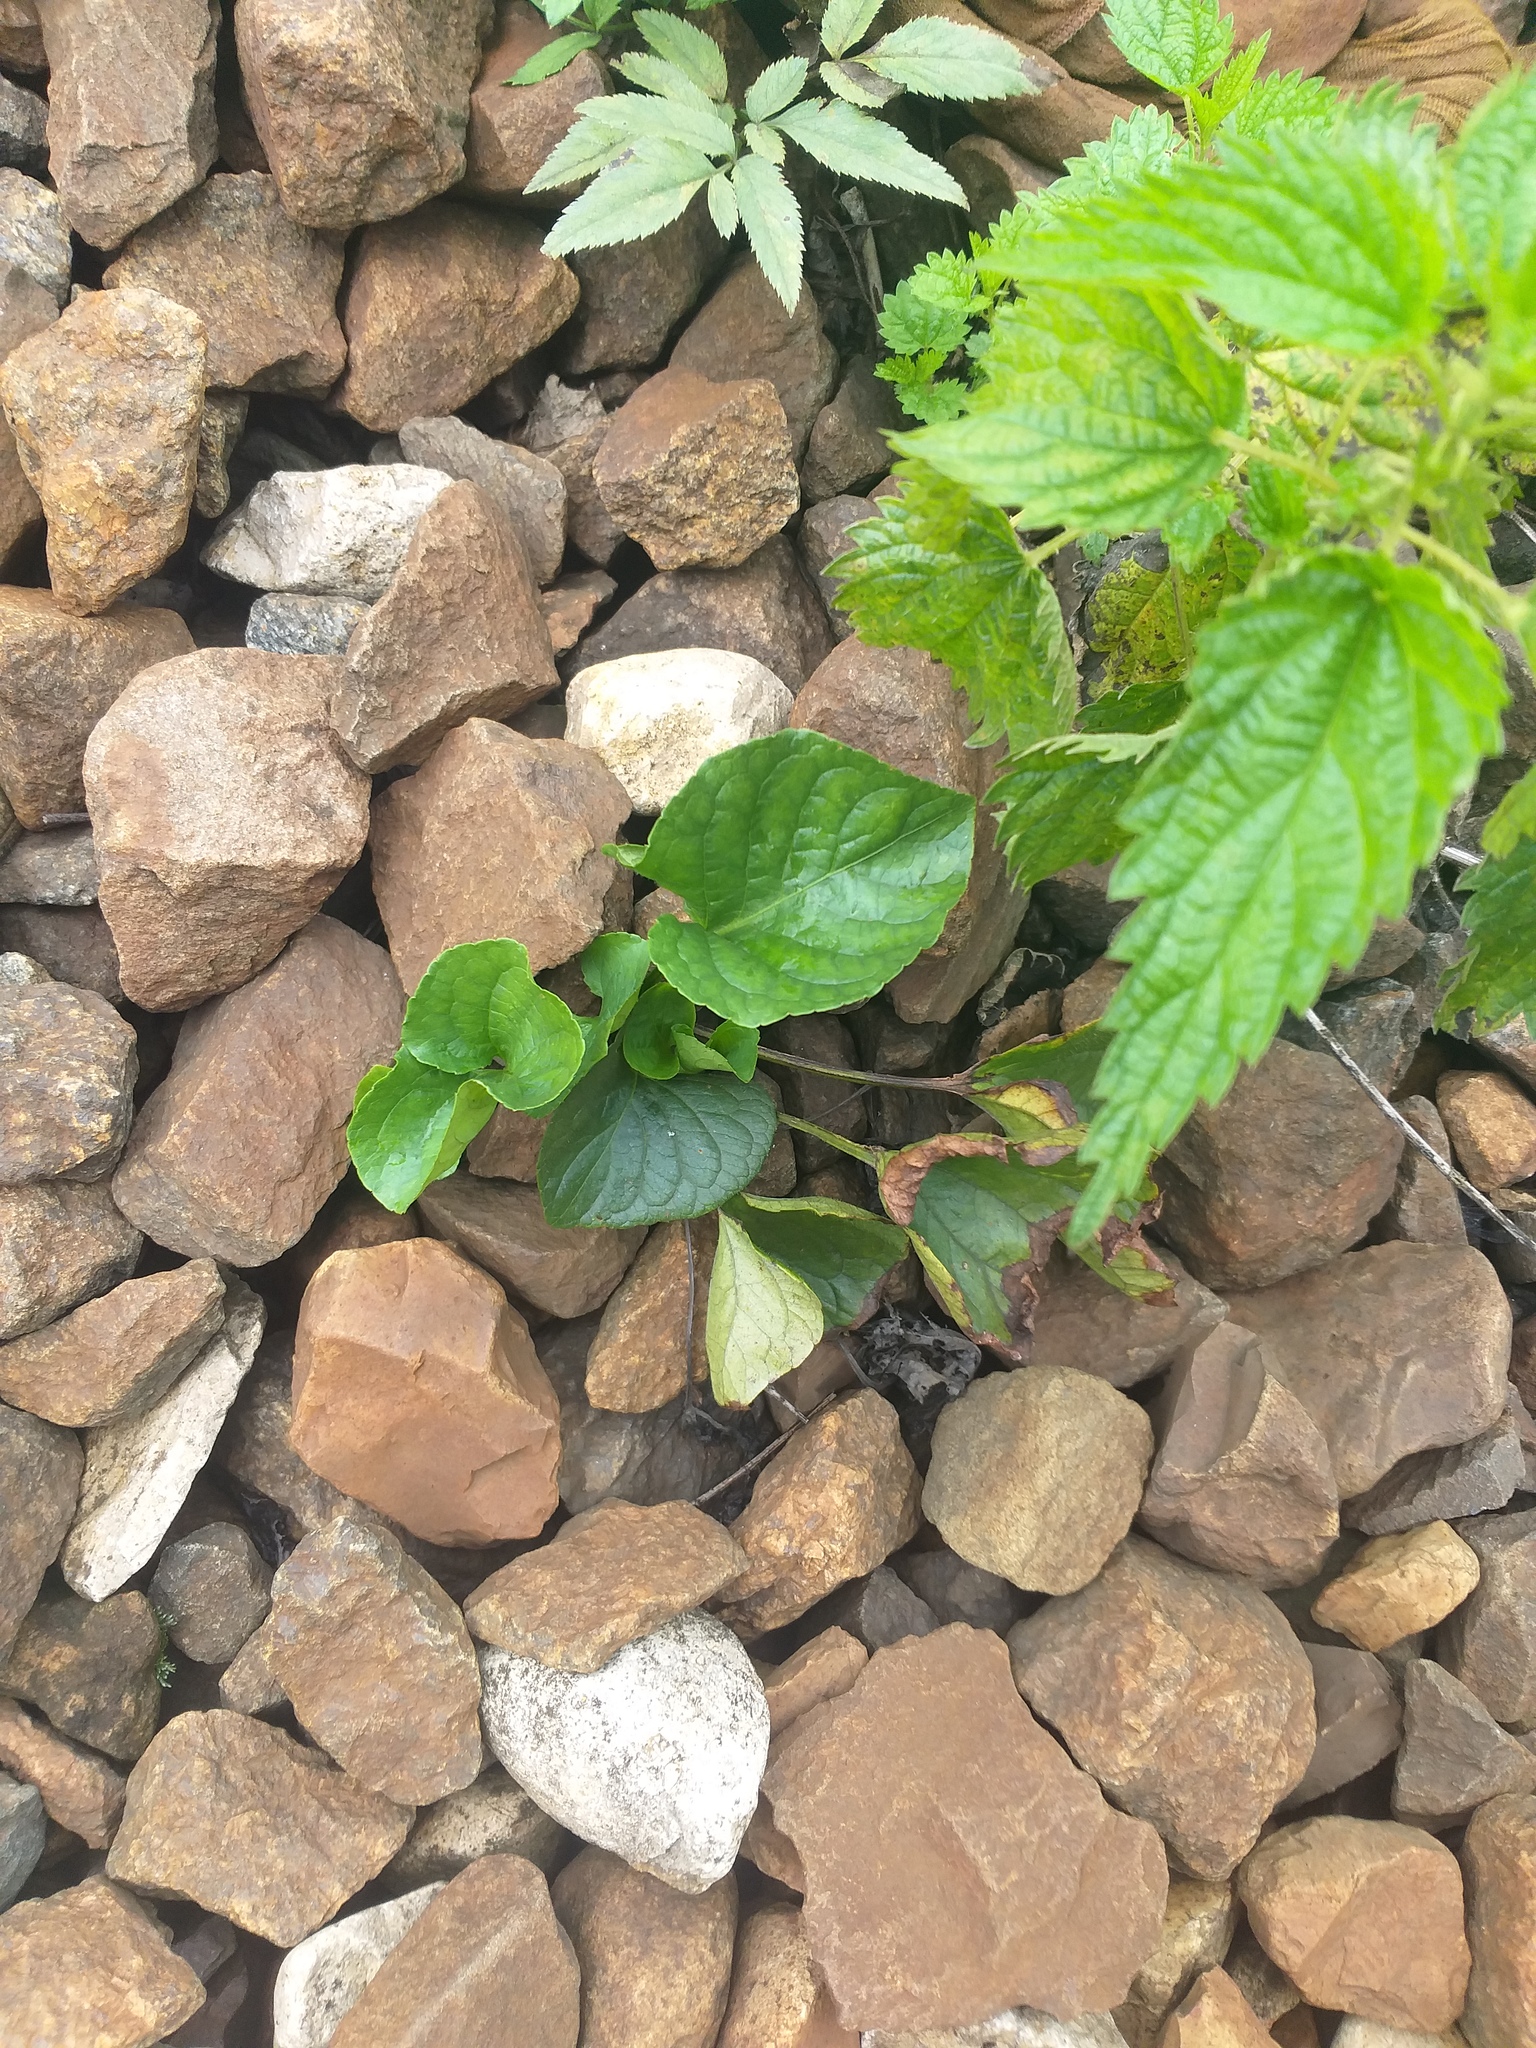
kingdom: Plantae
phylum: Tracheophyta
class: Magnoliopsida
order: Malpighiales
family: Violaceae
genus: Viola
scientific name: Viola mirabilis
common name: Wonder violet
